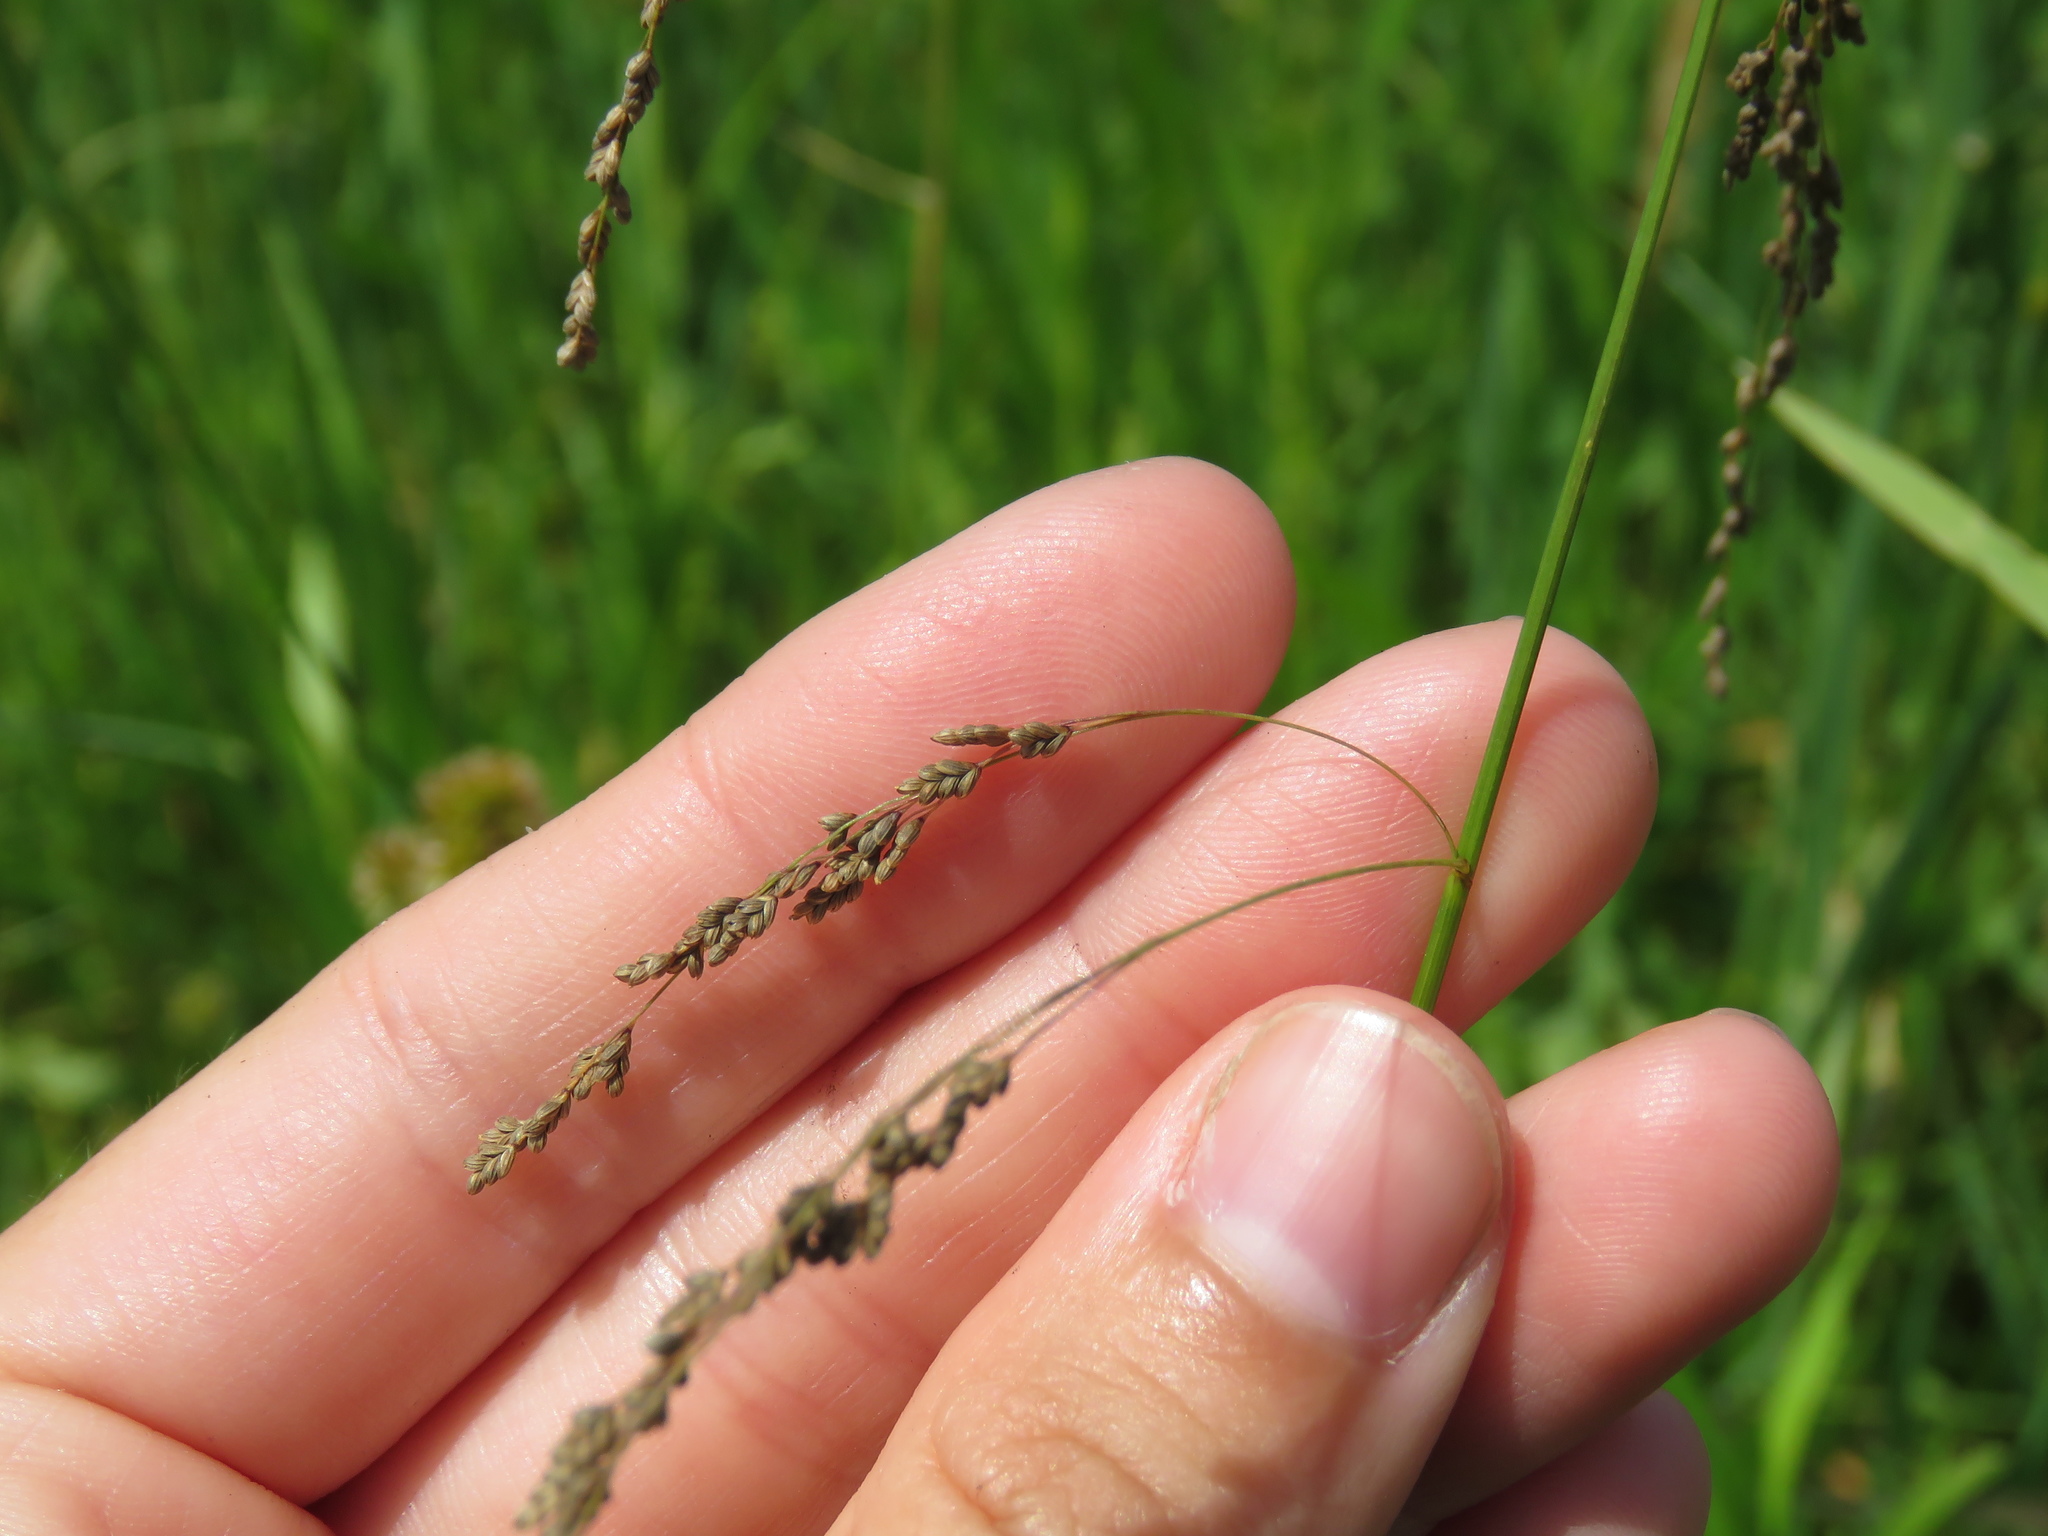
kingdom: Plantae
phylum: Tracheophyta
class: Liliopsida
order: Poales
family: Poaceae
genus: Glyceria
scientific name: Glyceria striata
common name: Fowl manna grass
